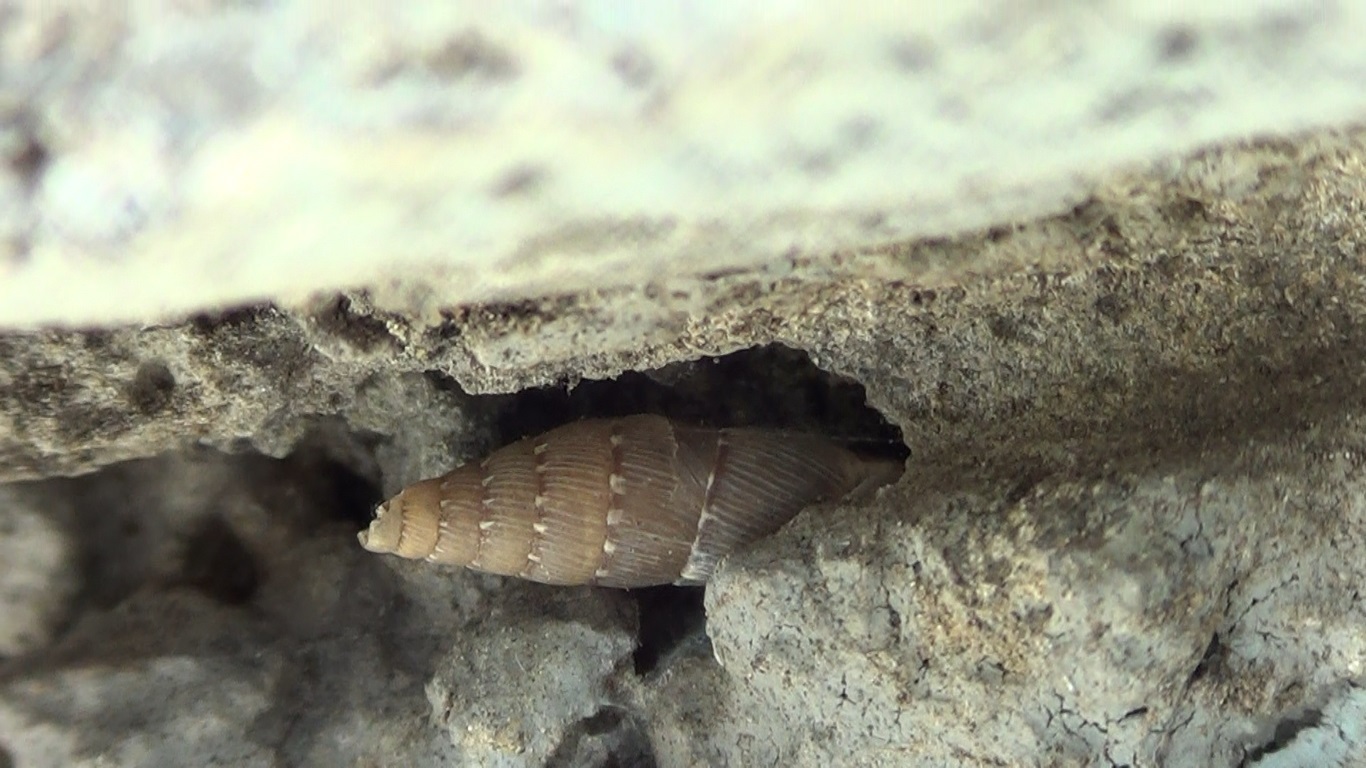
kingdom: Animalia
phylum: Mollusca
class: Gastropoda
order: Stylommatophora
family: Clausiliidae
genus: Papillifera
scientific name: Papillifera papillaris
